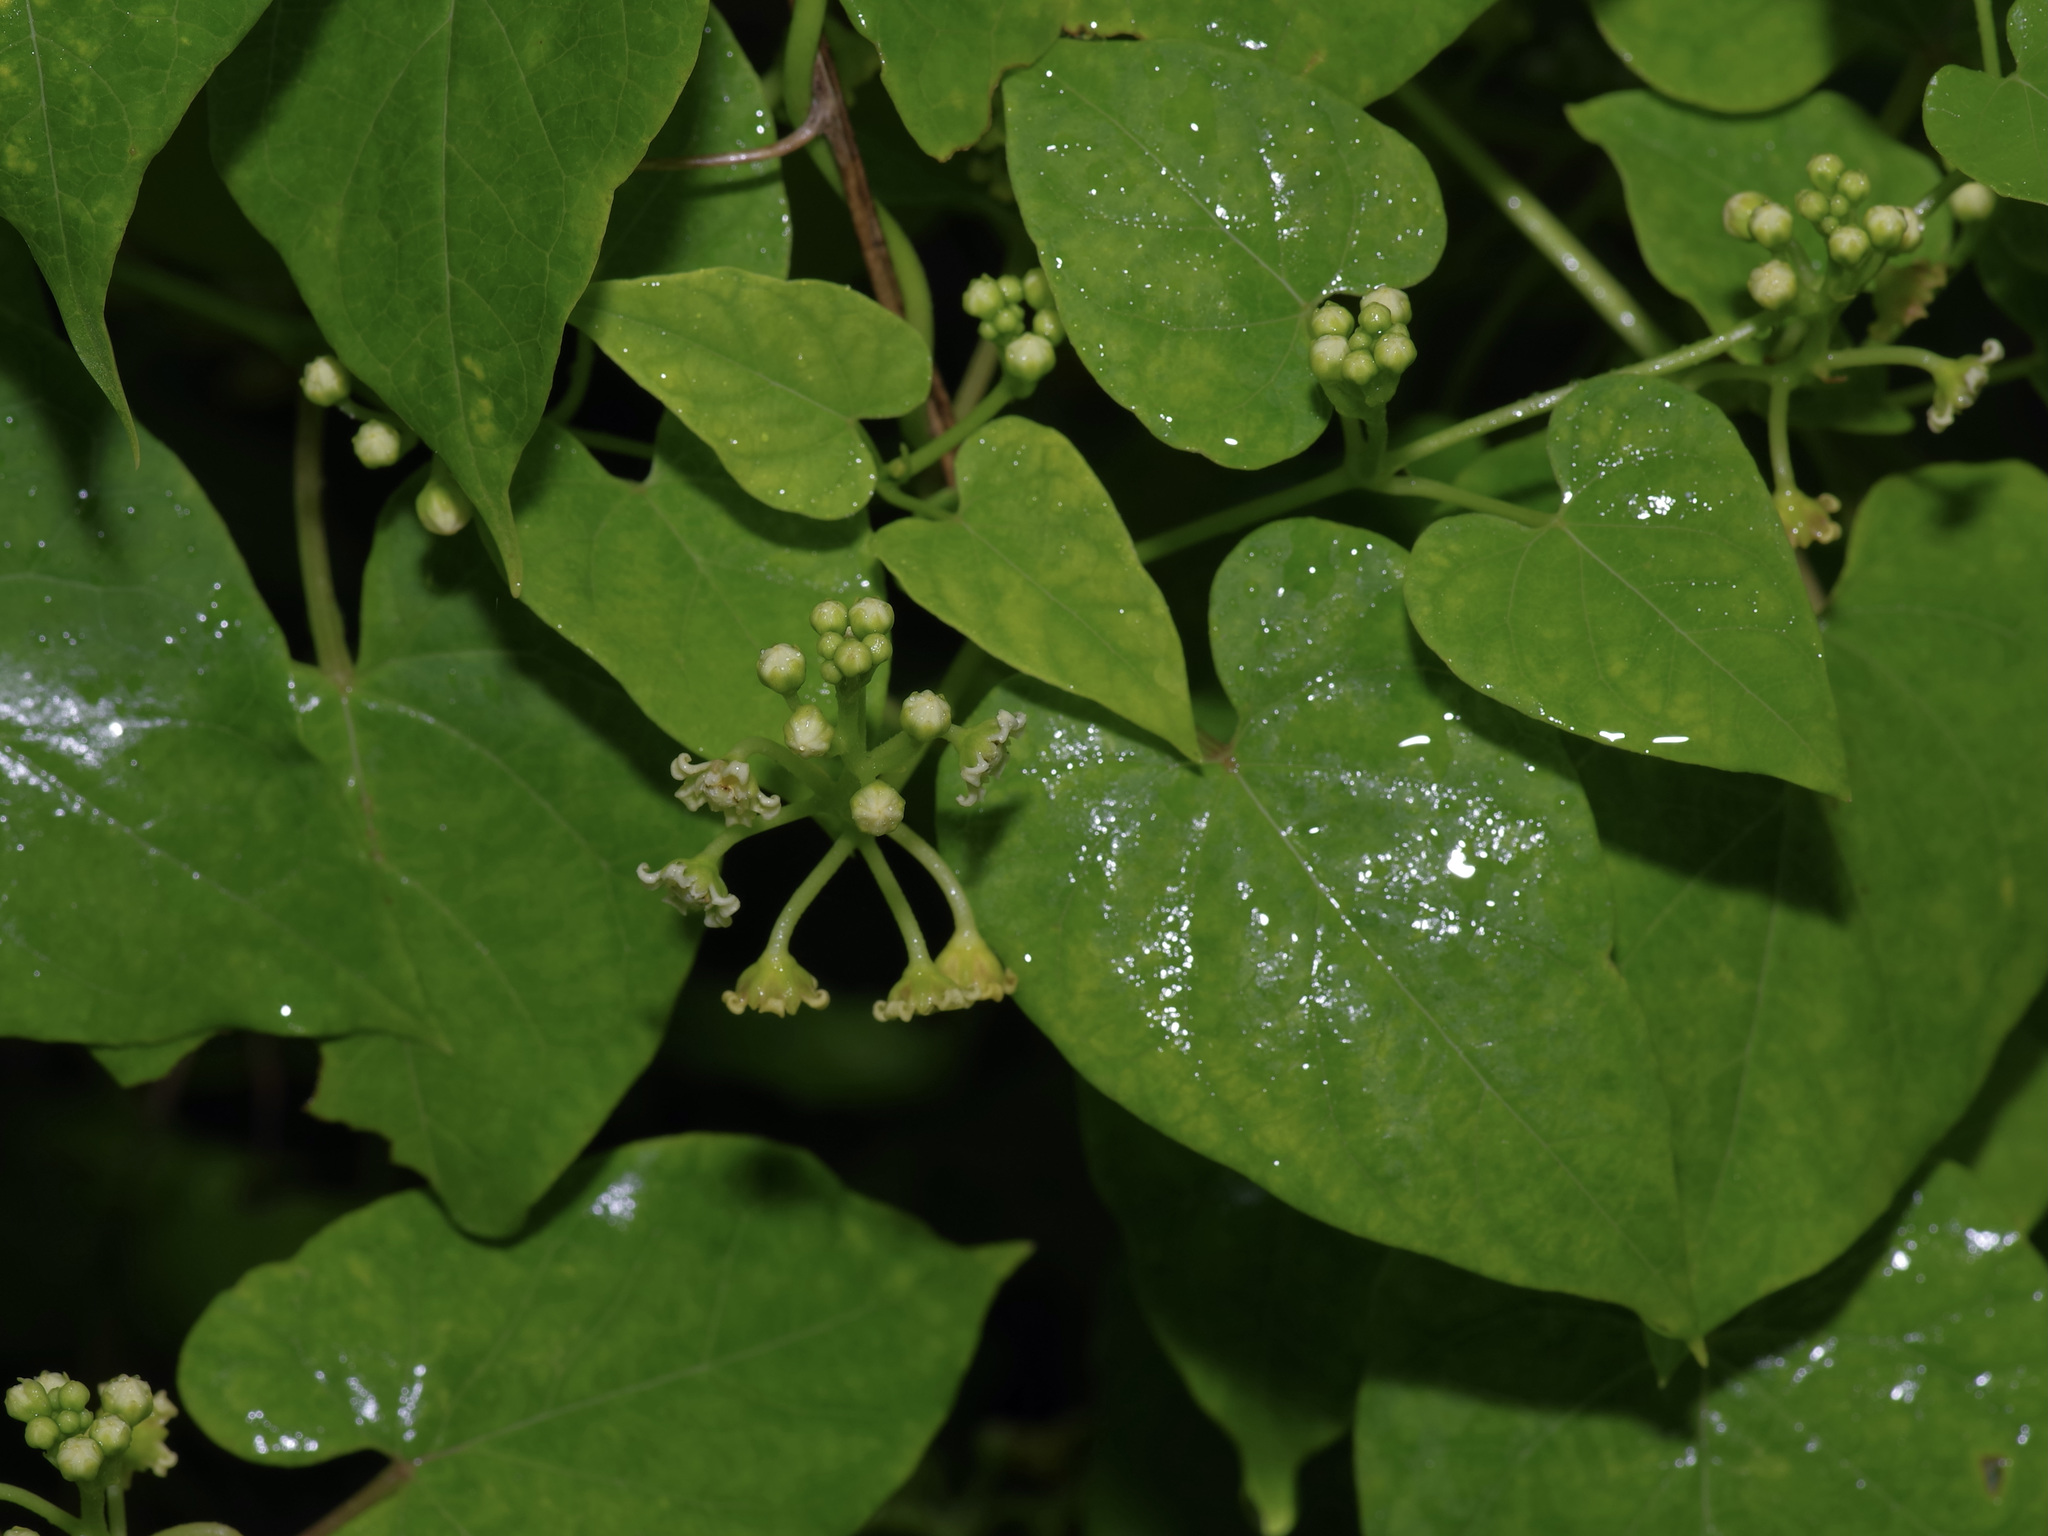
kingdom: Plantae
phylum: Tracheophyta
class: Magnoliopsida
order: Gentianales
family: Apocynaceae
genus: Cynanchum
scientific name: Cynanchum racemosum
